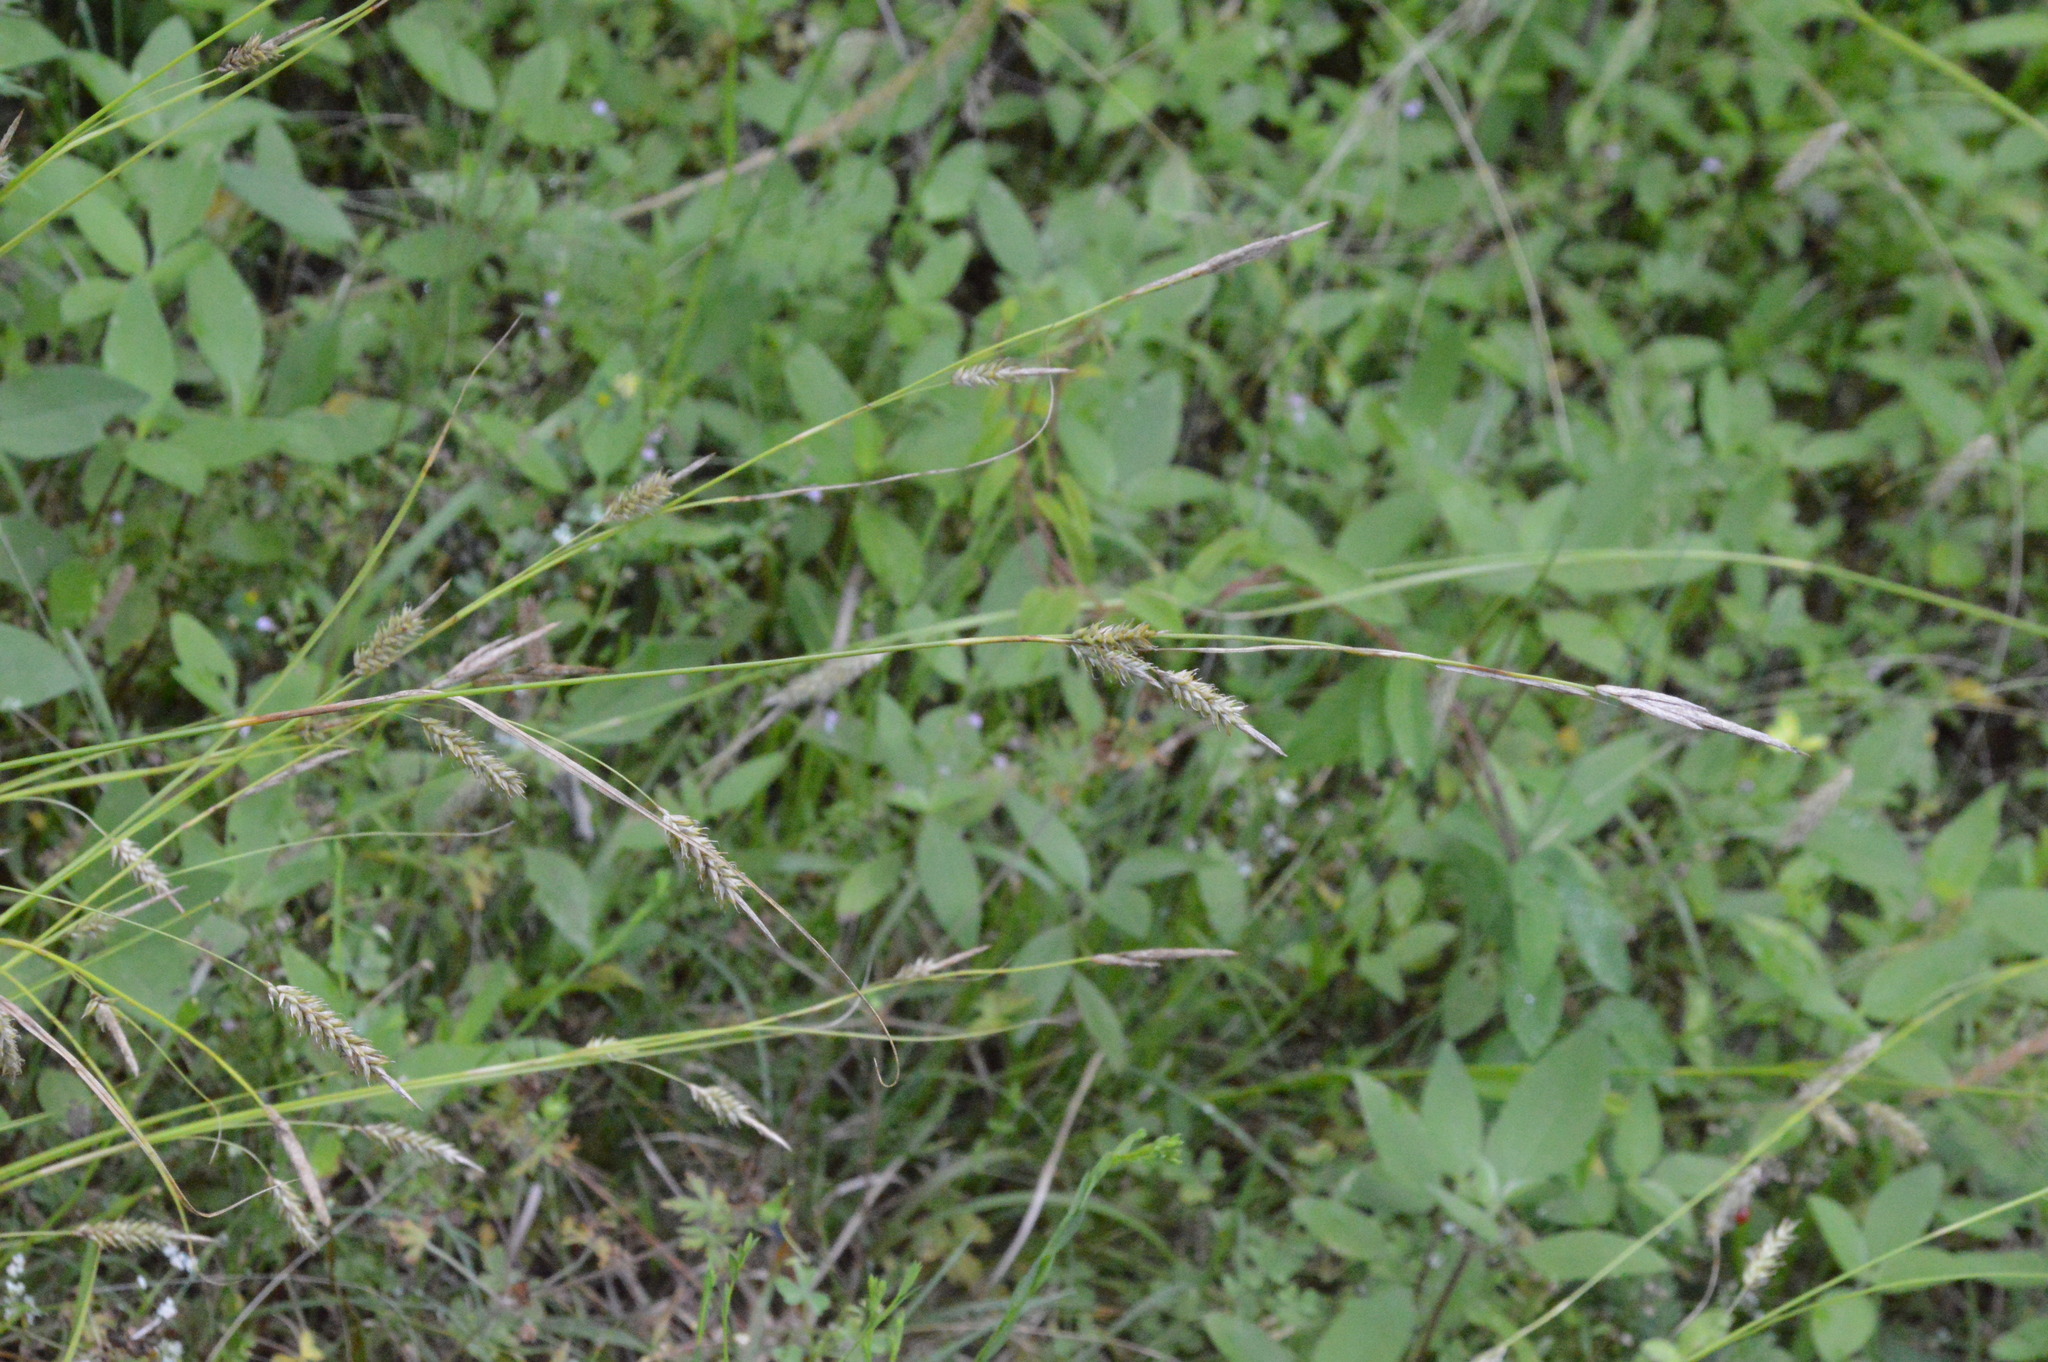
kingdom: Plantae
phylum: Tracheophyta
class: Liliopsida
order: Poales
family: Cyperaceae
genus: Carex
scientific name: Carex cherokeensis
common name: Cherokee sedge
